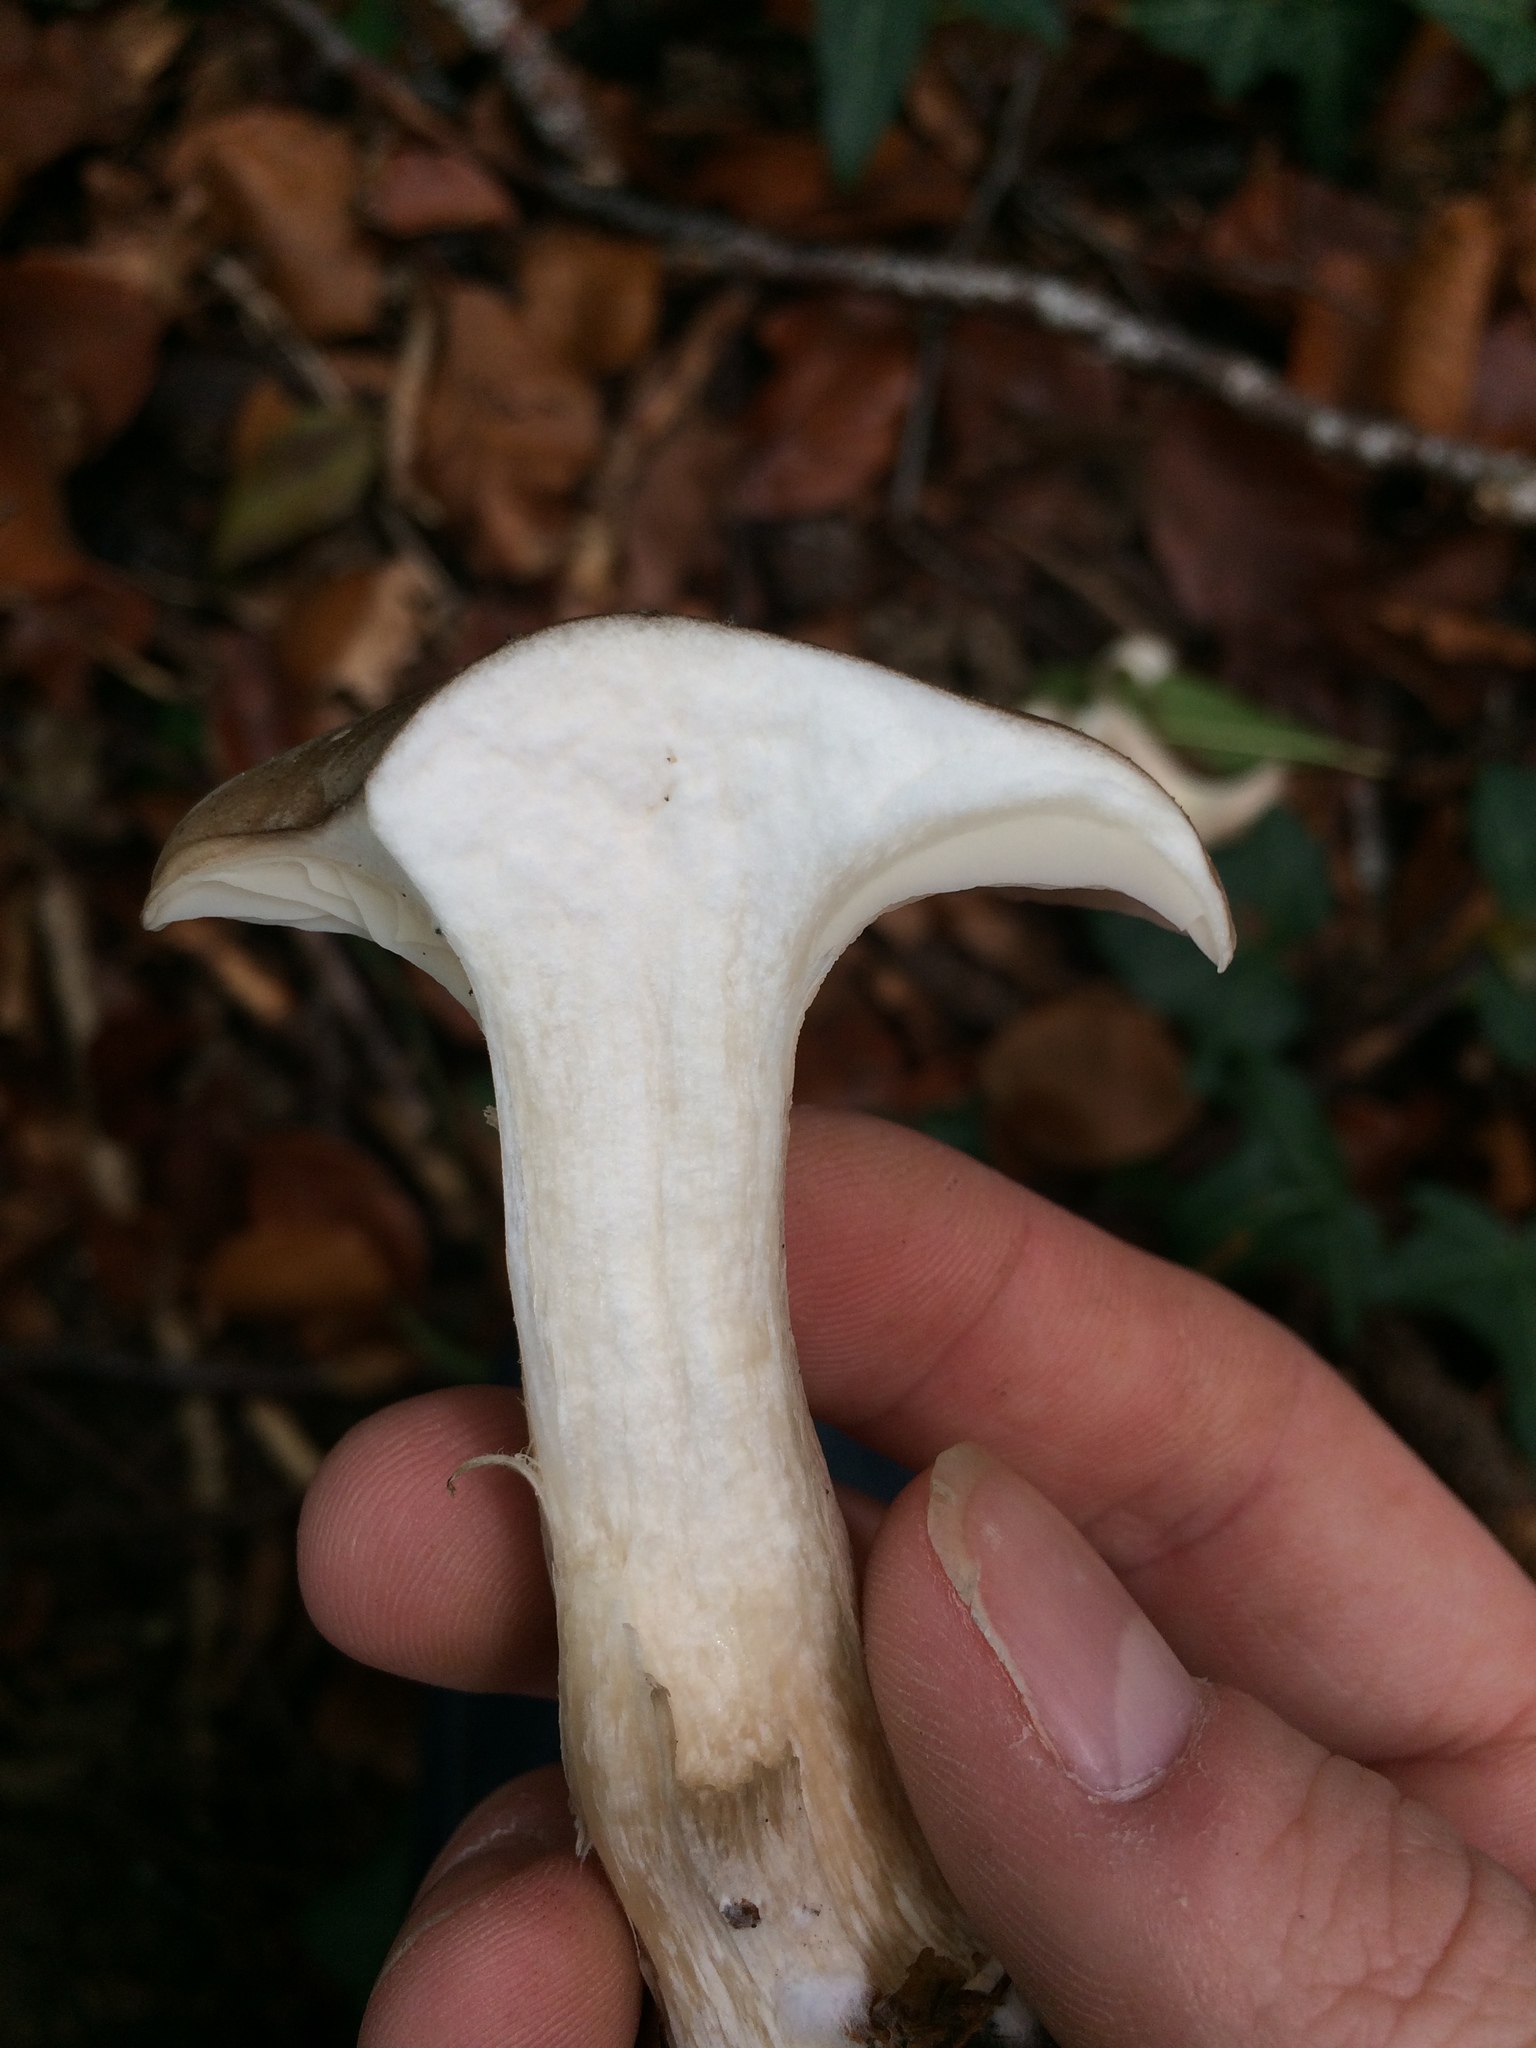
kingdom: Fungi
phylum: Basidiomycota
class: Agaricomycetes
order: Agaricales
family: Tricholomataceae
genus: Clitocybe
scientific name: Clitocybe nebularis
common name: Clouded agaric
